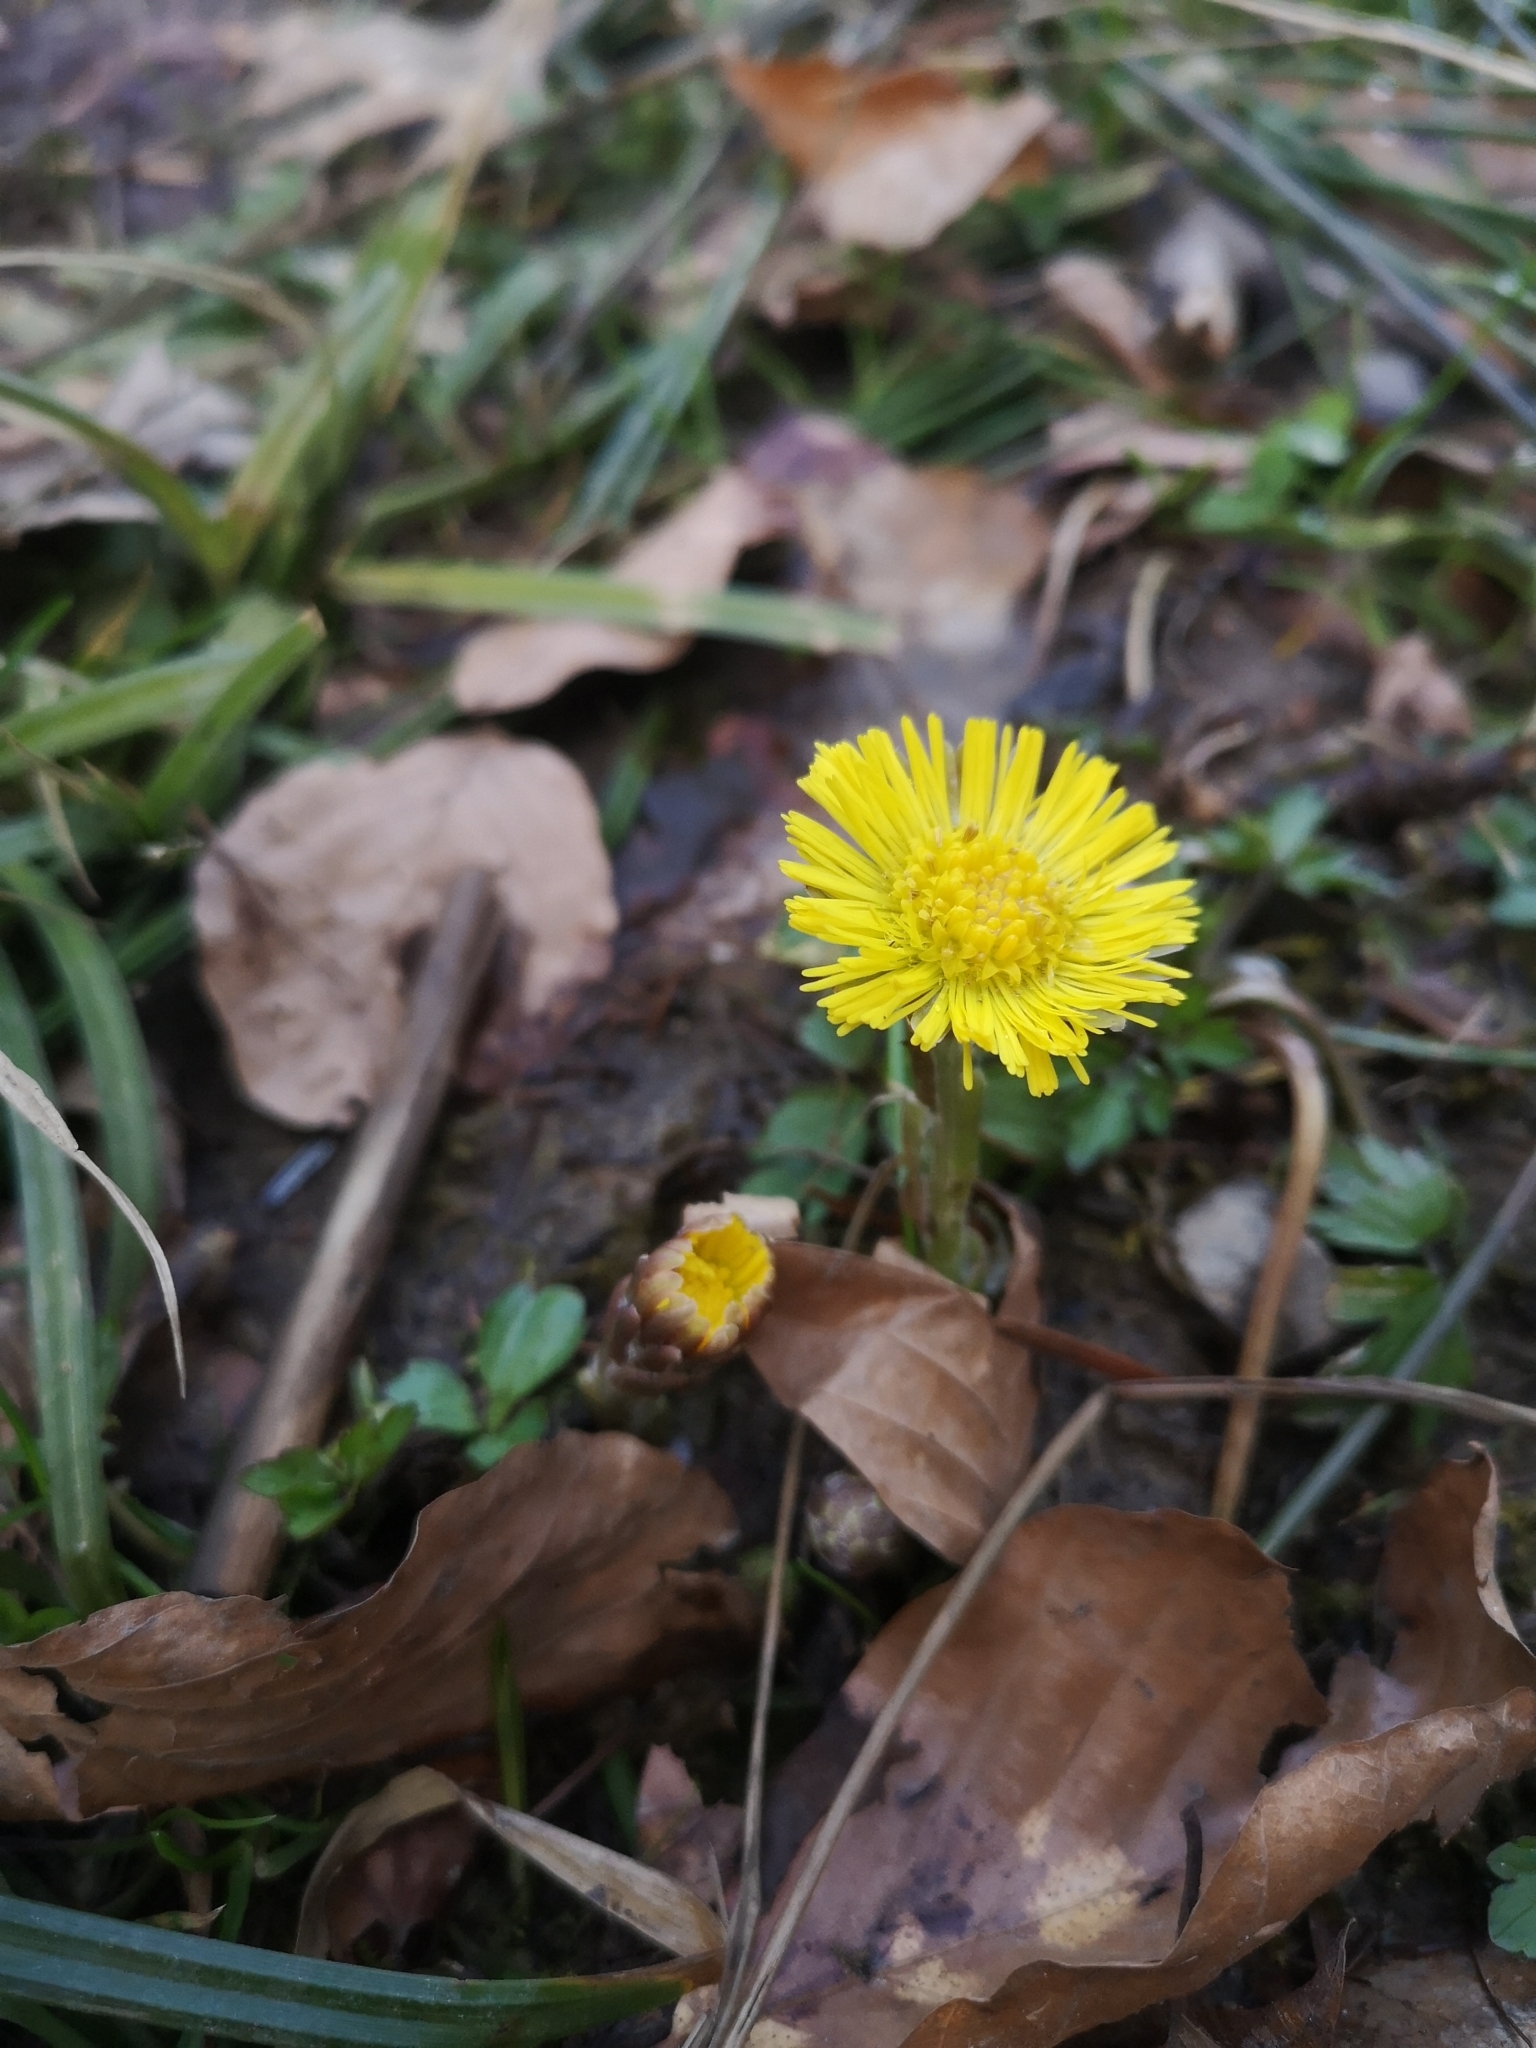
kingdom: Plantae
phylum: Tracheophyta
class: Magnoliopsida
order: Asterales
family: Asteraceae
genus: Tussilago
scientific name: Tussilago farfara
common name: Coltsfoot
